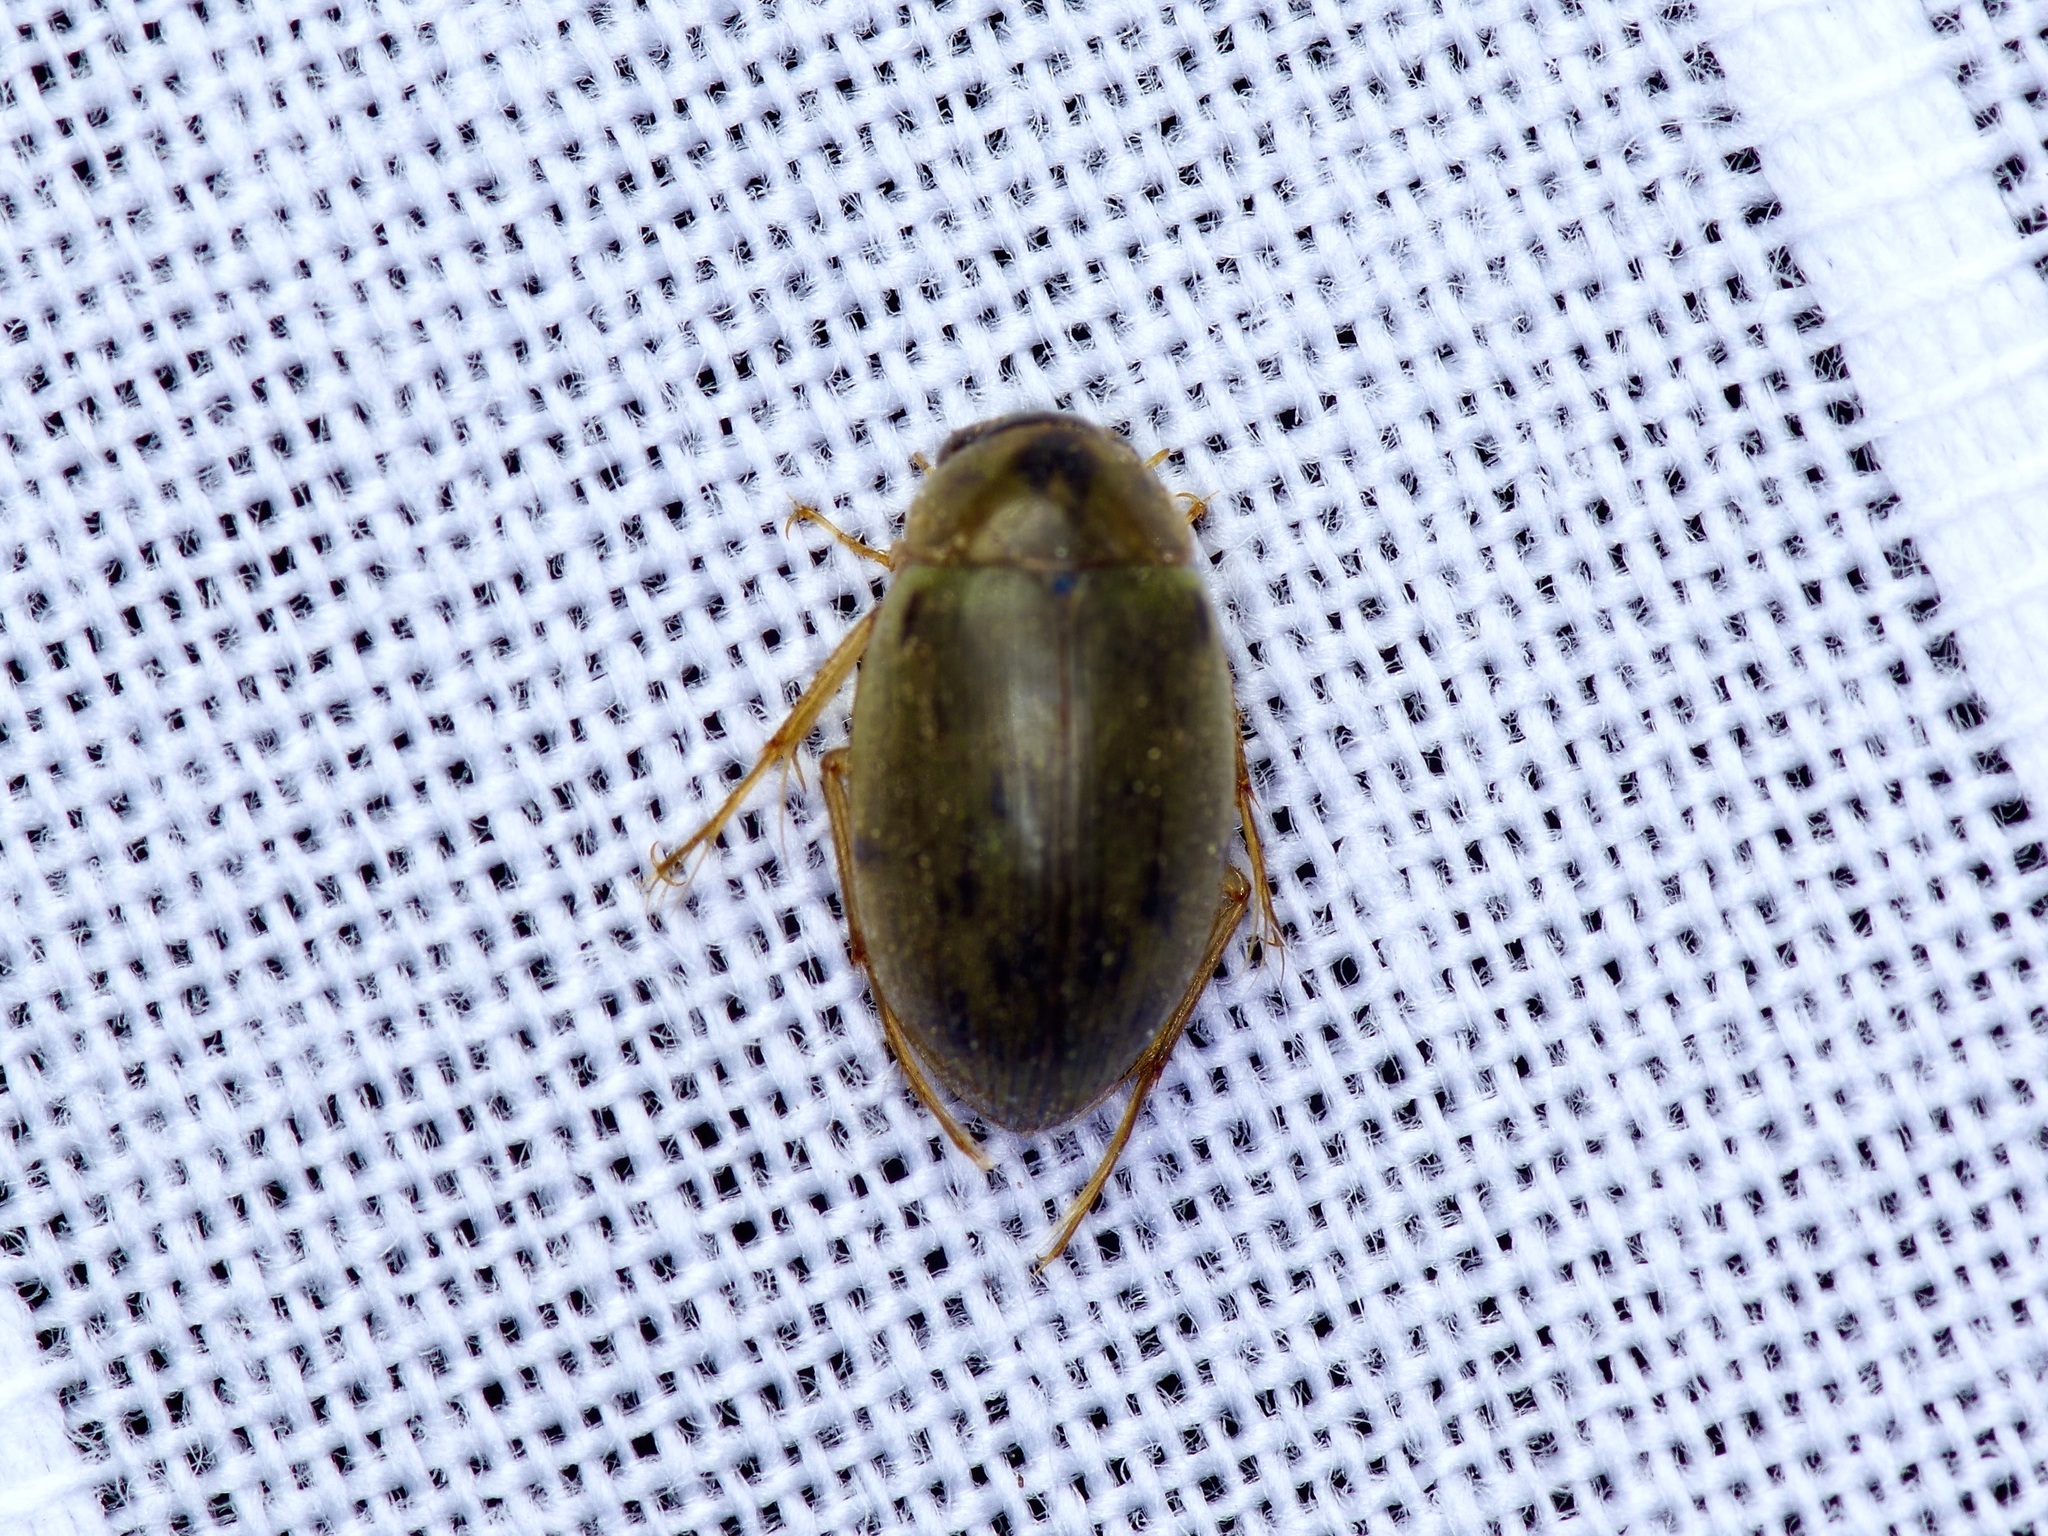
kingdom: Animalia
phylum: Arthropoda
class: Insecta
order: Coleoptera
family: Hydrophilidae
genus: Berosus
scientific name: Berosus
